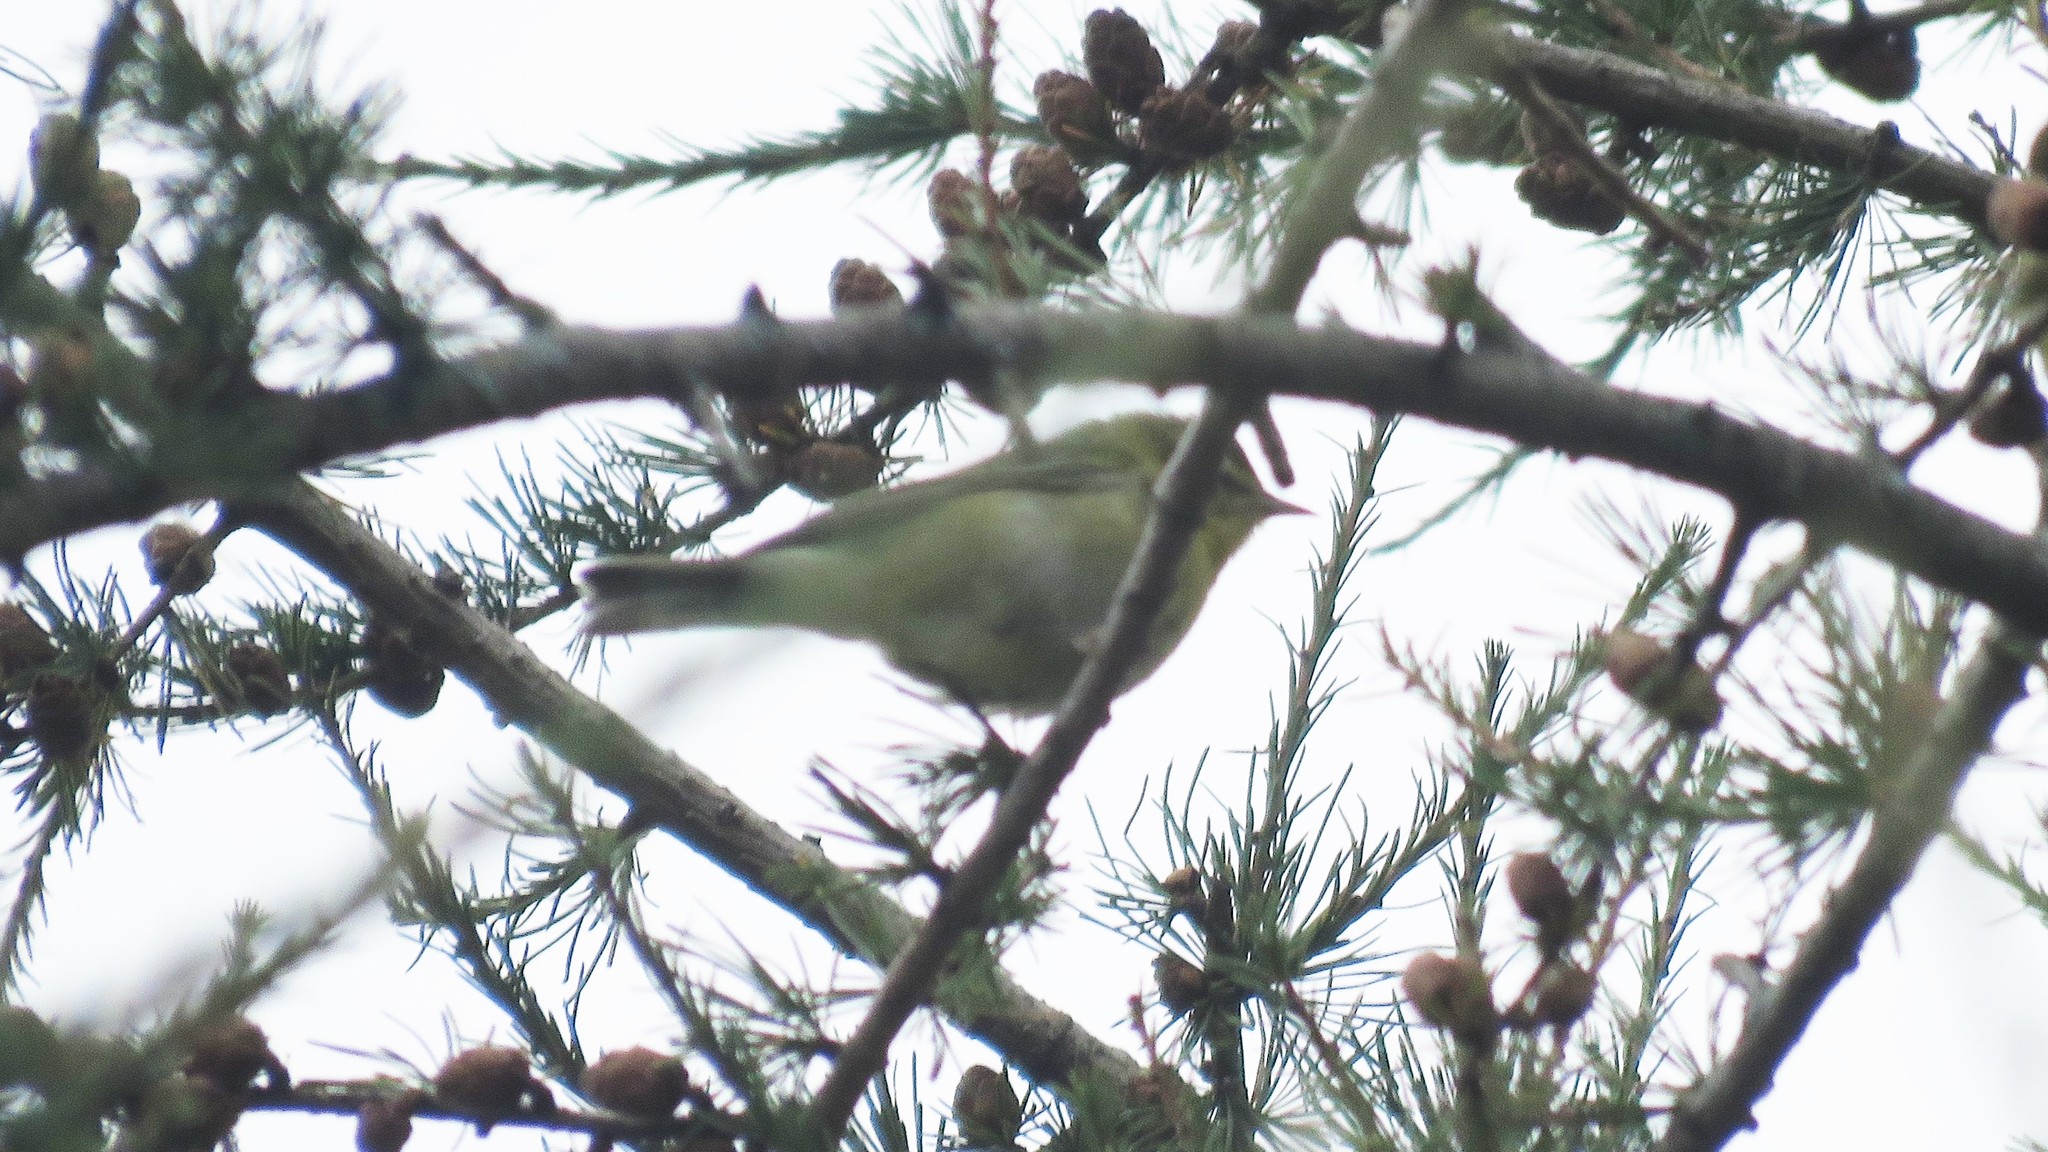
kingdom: Animalia
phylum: Chordata
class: Aves
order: Passeriformes
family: Parulidae
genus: Leiothlypis
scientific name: Leiothlypis peregrina
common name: Tennessee warbler
